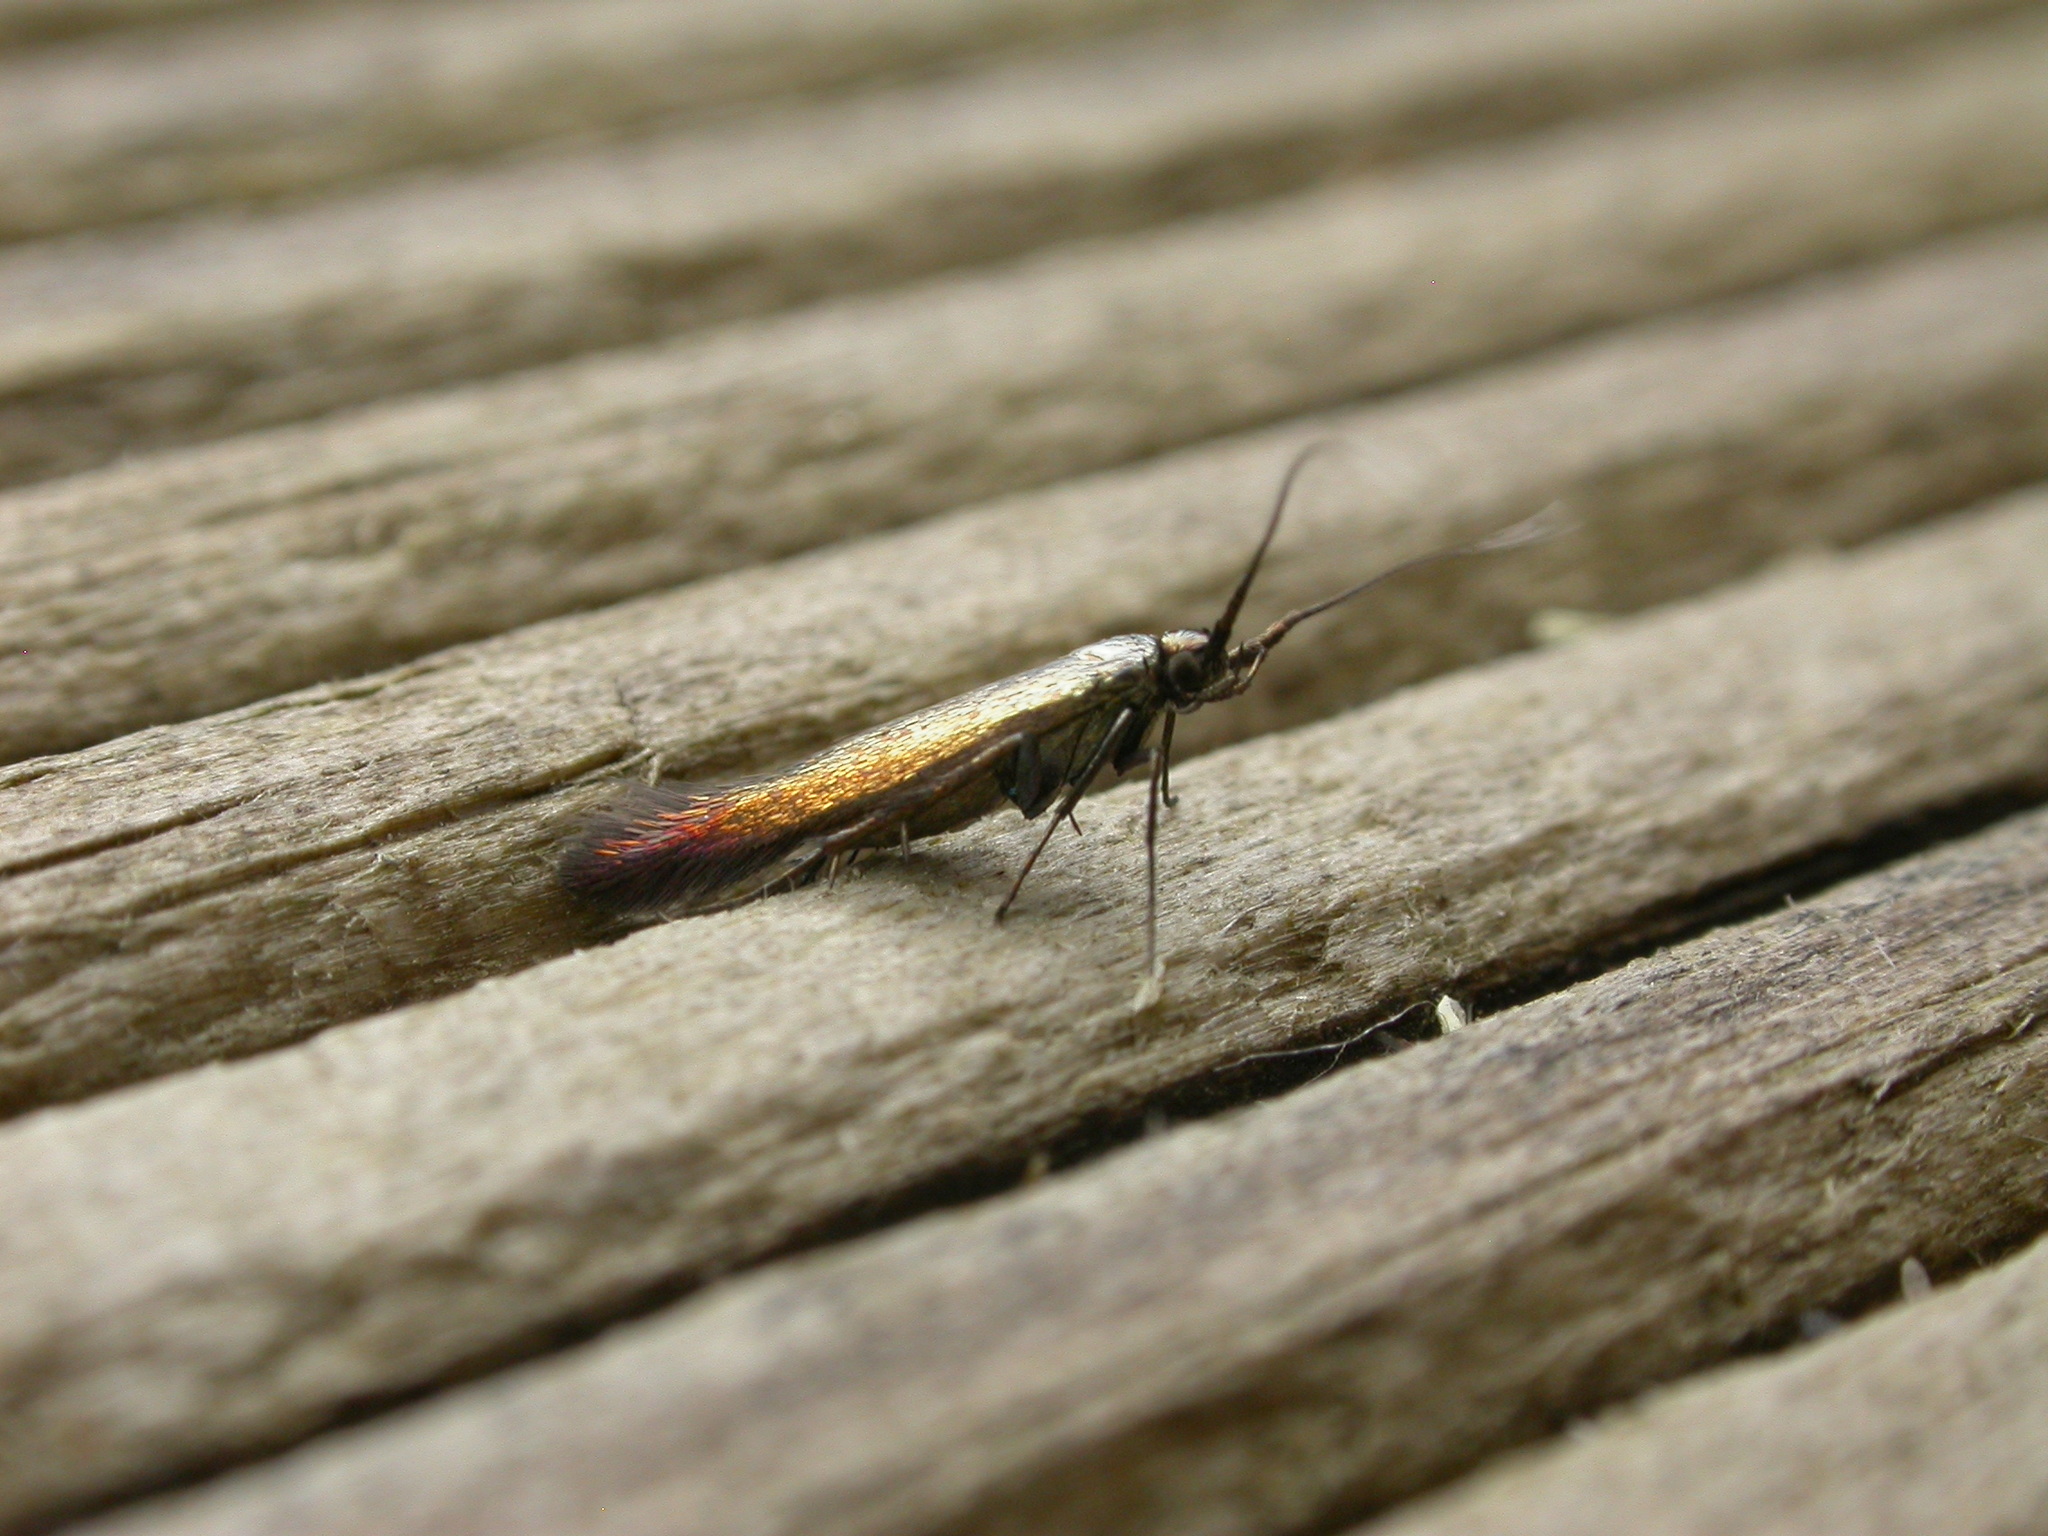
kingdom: Animalia
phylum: Arthropoda
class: Insecta
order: Lepidoptera
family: Coleophoridae
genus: Coleophora
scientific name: Coleophora alcyonipennella
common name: Clover case-bearer
